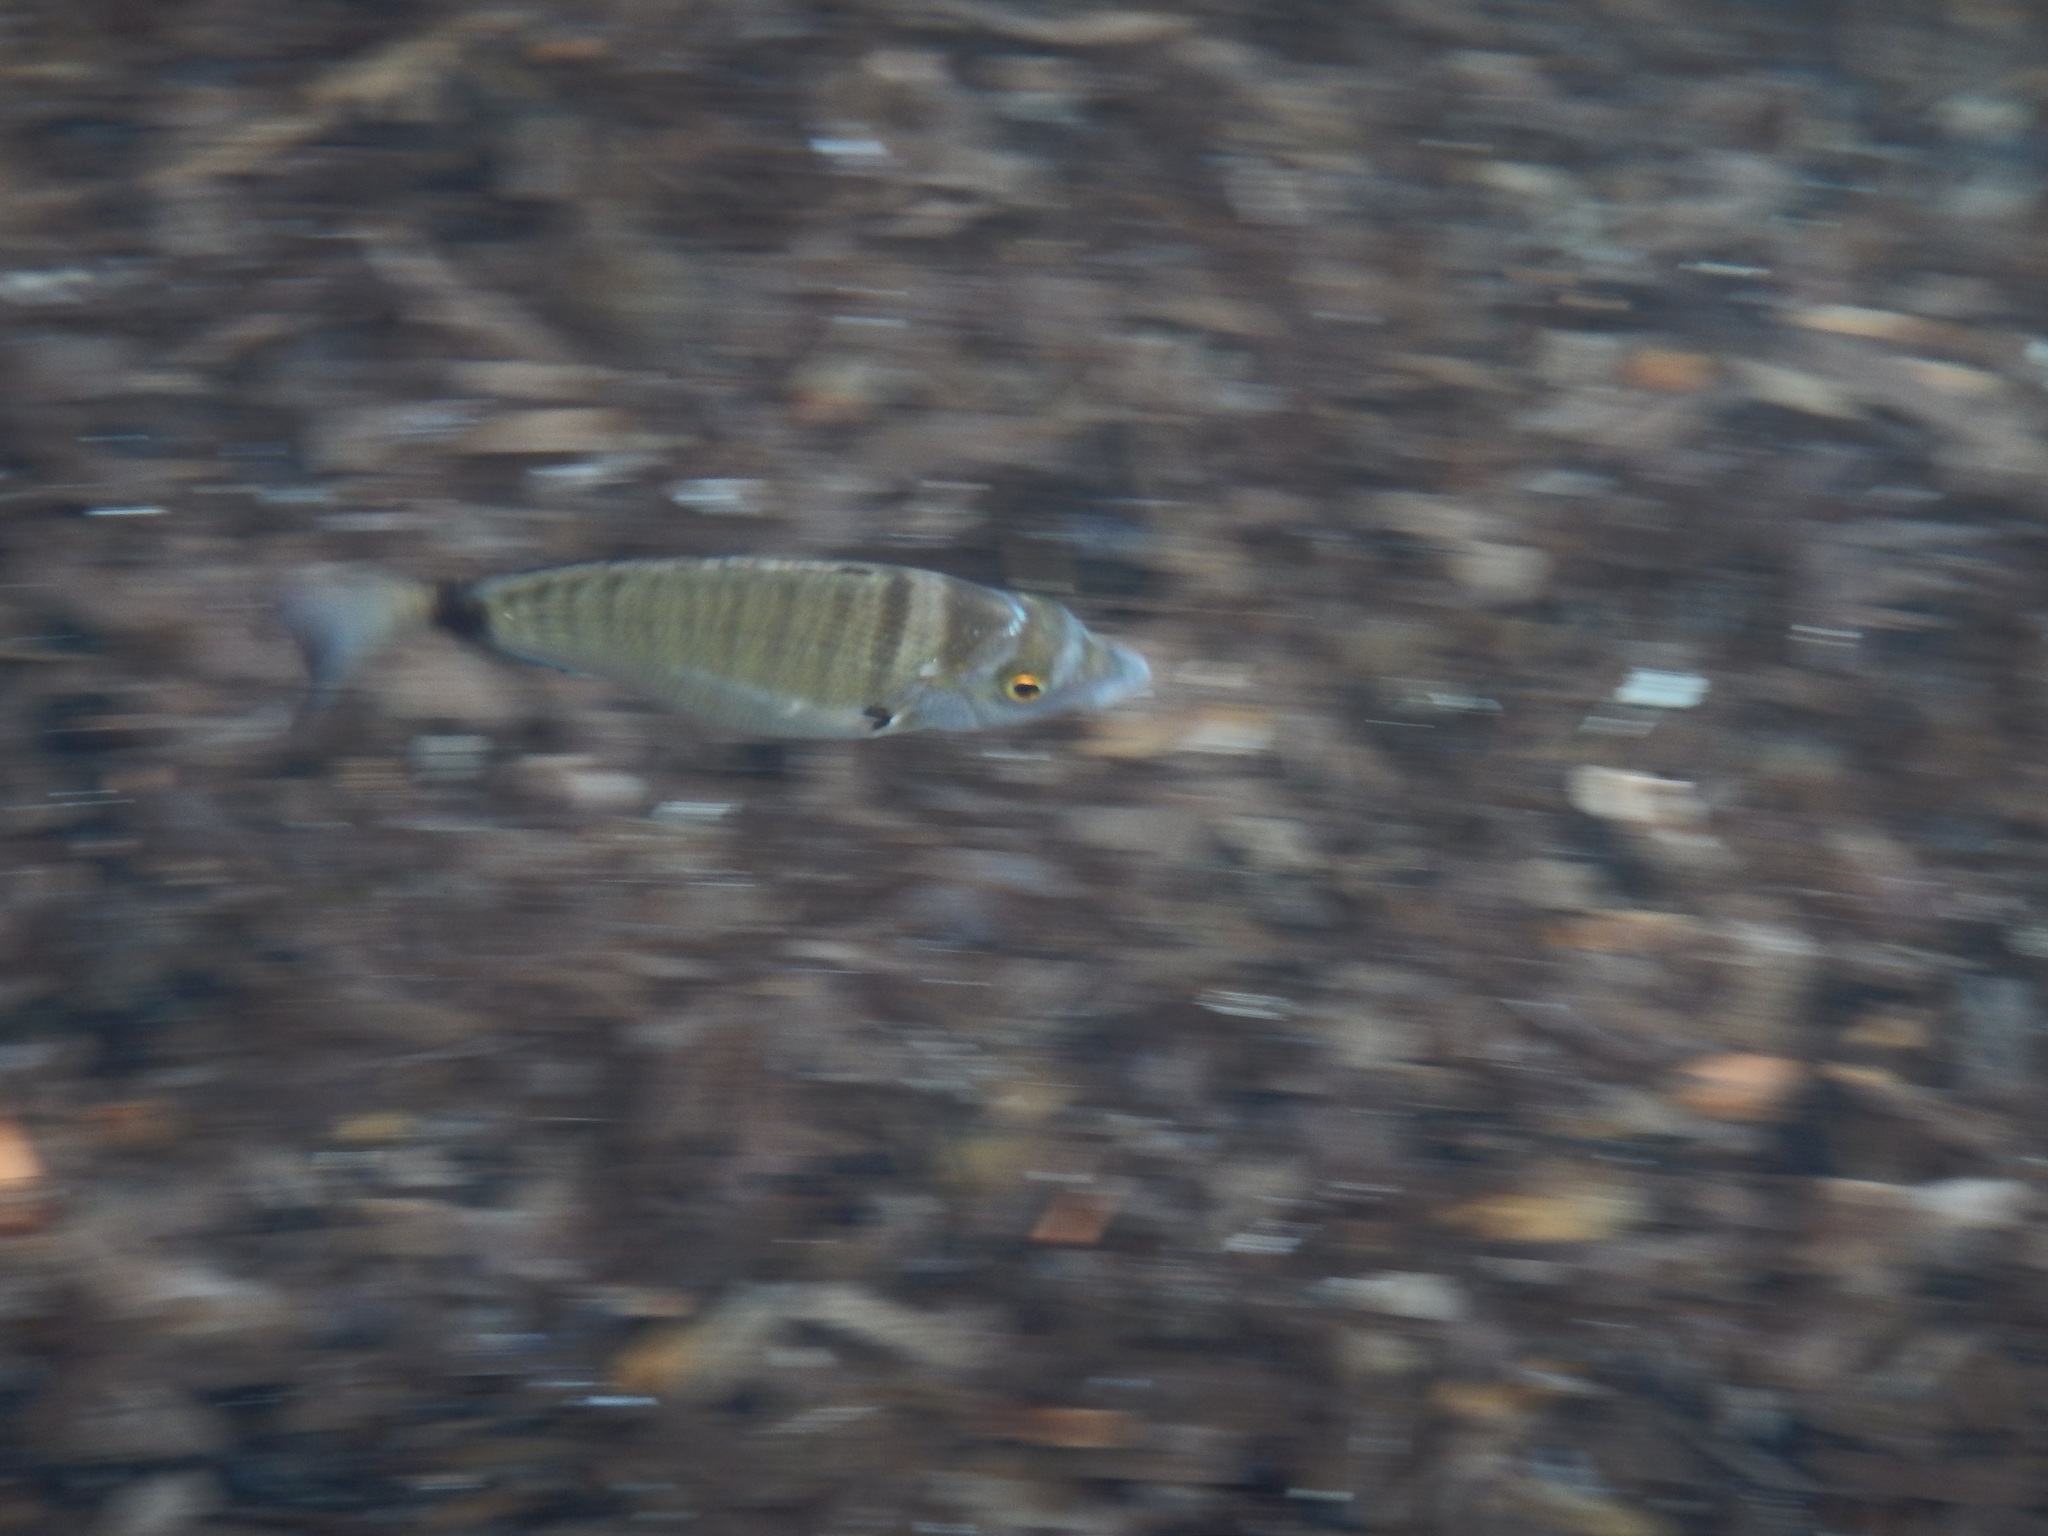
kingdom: Animalia
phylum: Chordata
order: Perciformes
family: Sparidae
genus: Diplodus
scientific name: Diplodus puntazzo
